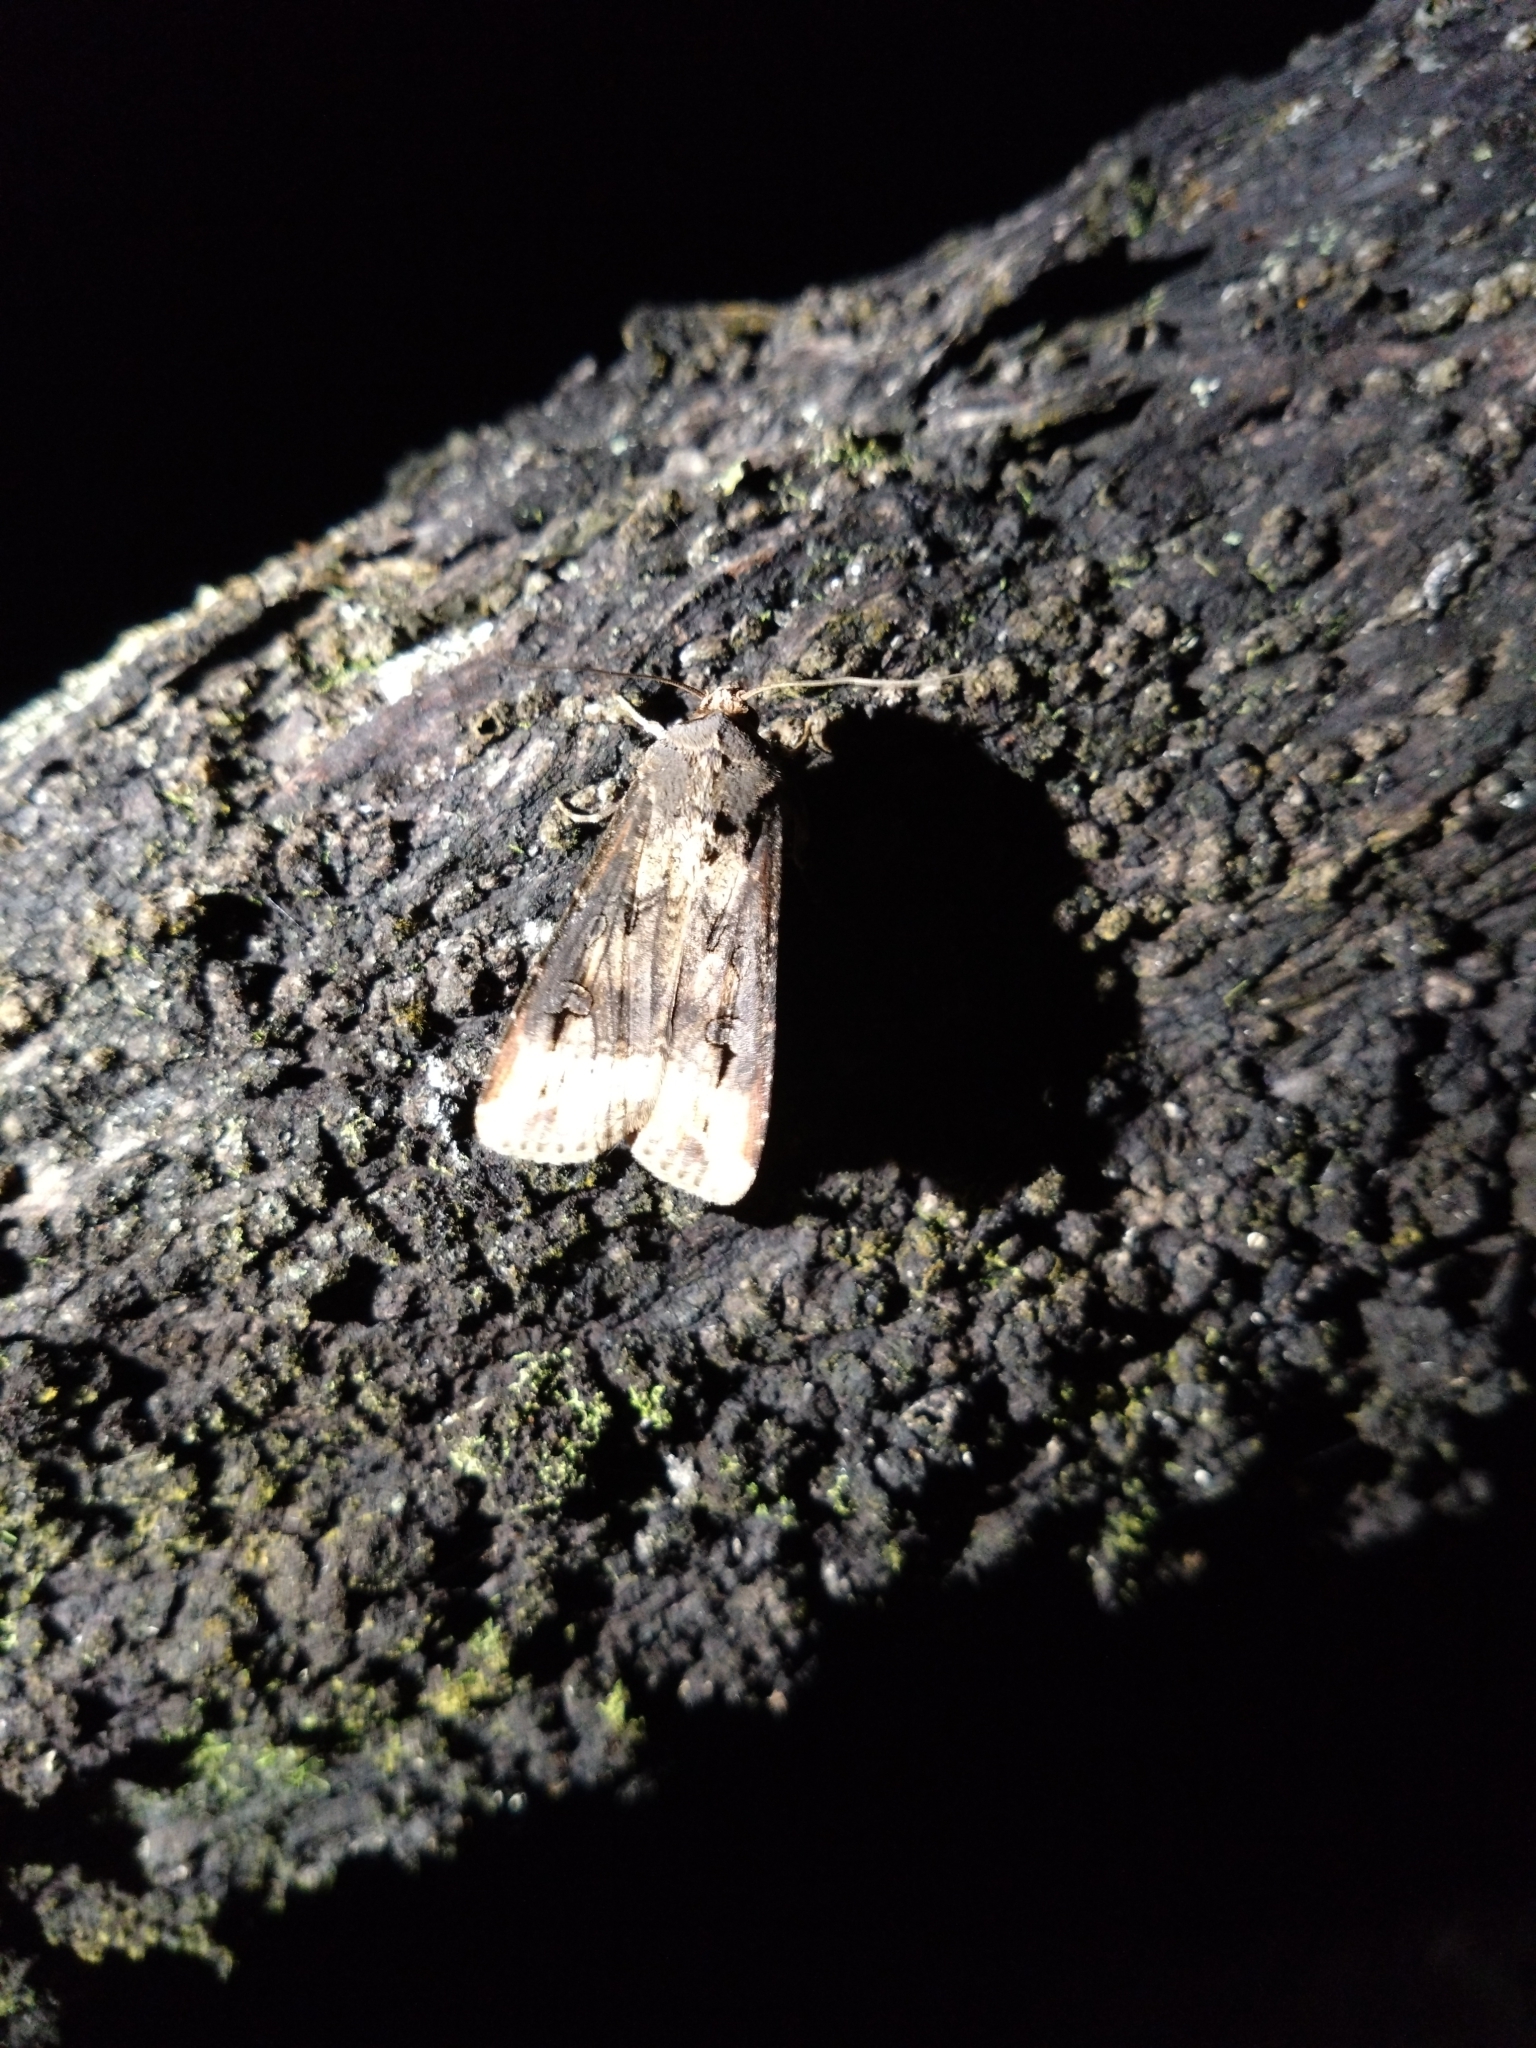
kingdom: Animalia
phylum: Arthropoda
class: Insecta
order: Lepidoptera
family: Noctuidae
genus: Agrotis
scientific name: Agrotis ipsilon
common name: Dark sword-grass
